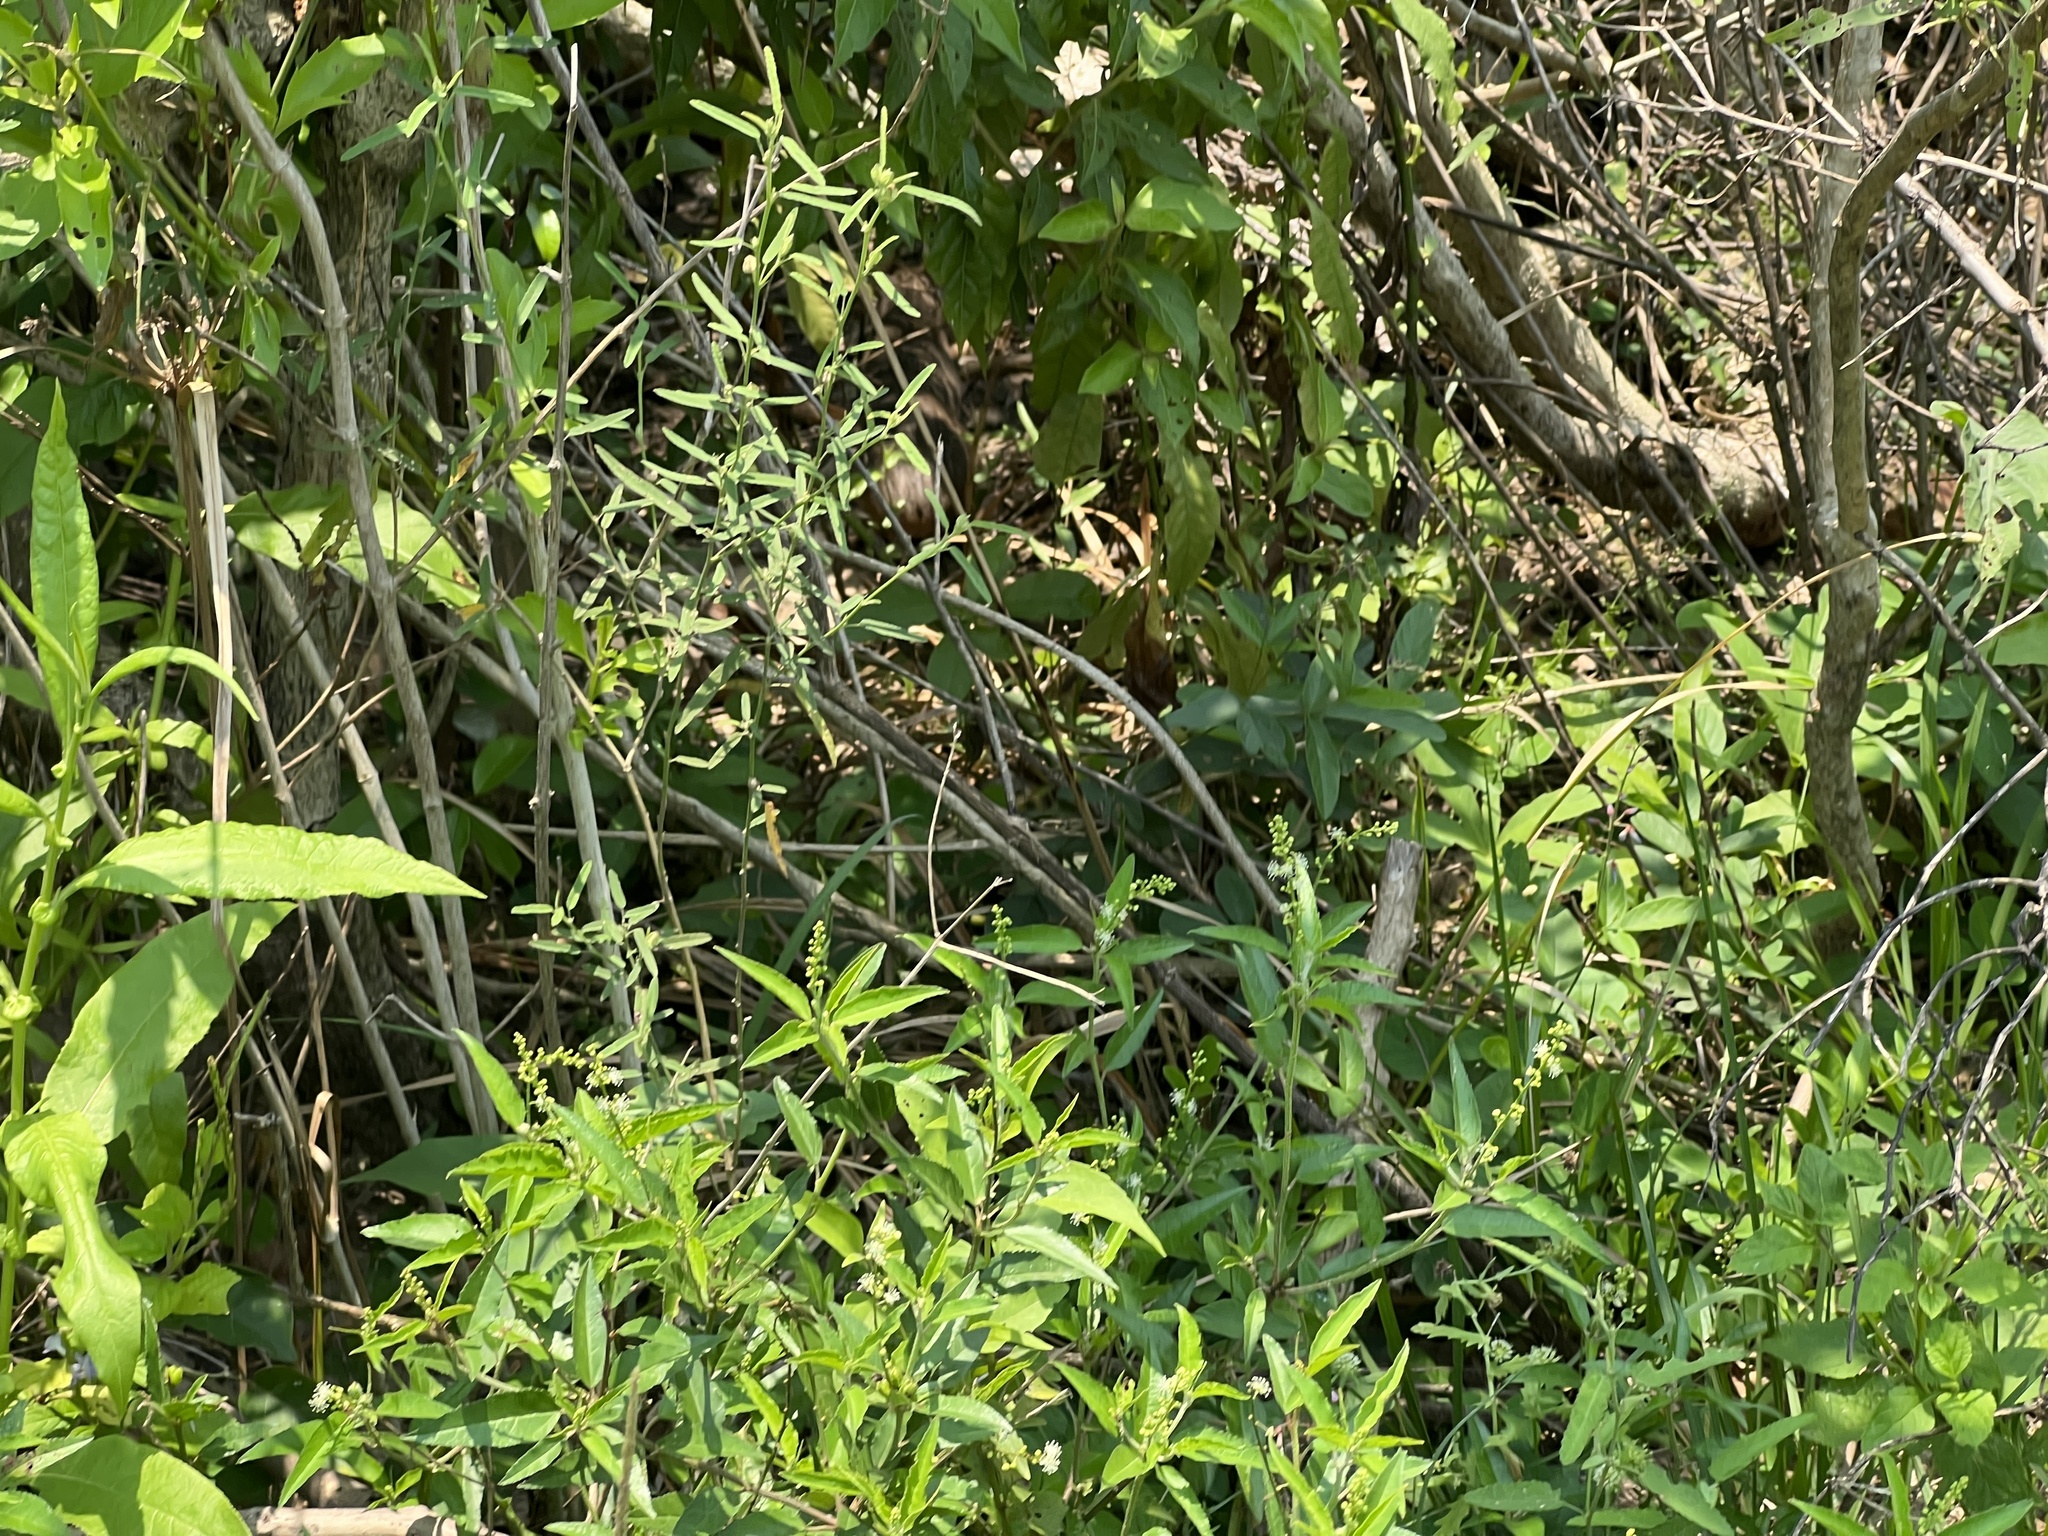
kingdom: Animalia
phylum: Chordata
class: Mammalia
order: Rodentia
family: Caviidae
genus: Cavia
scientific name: Cavia aperea
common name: Brazilian guinea pig
